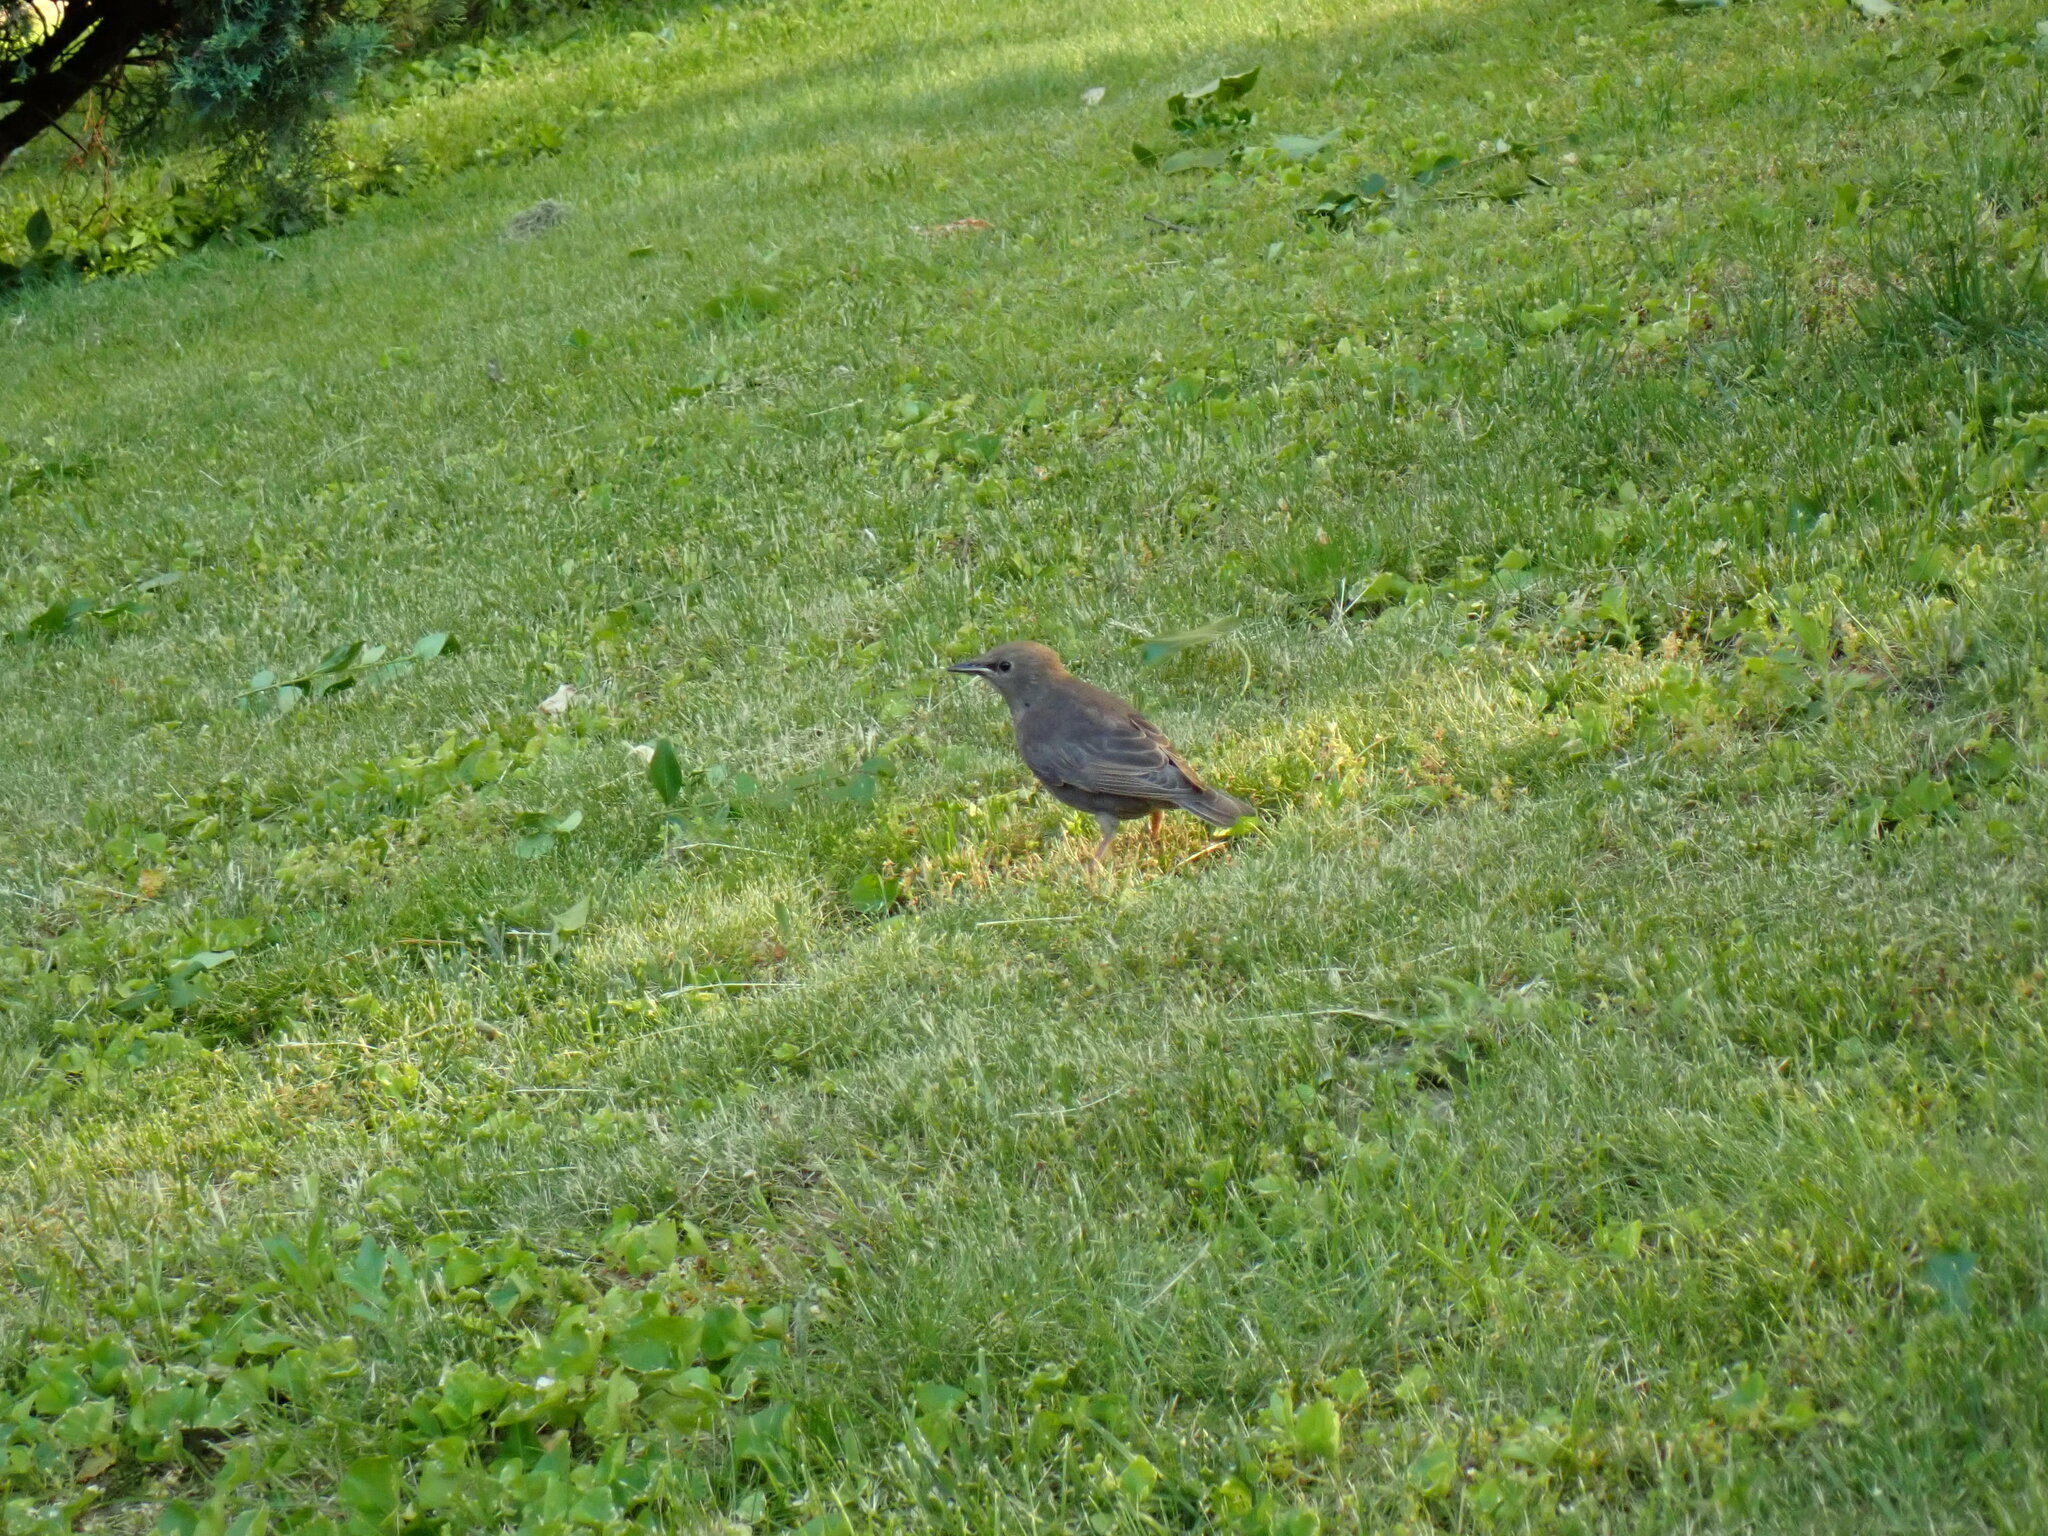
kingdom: Animalia
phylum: Chordata
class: Aves
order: Passeriformes
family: Sturnidae
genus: Sturnus
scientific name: Sturnus vulgaris
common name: Common starling
